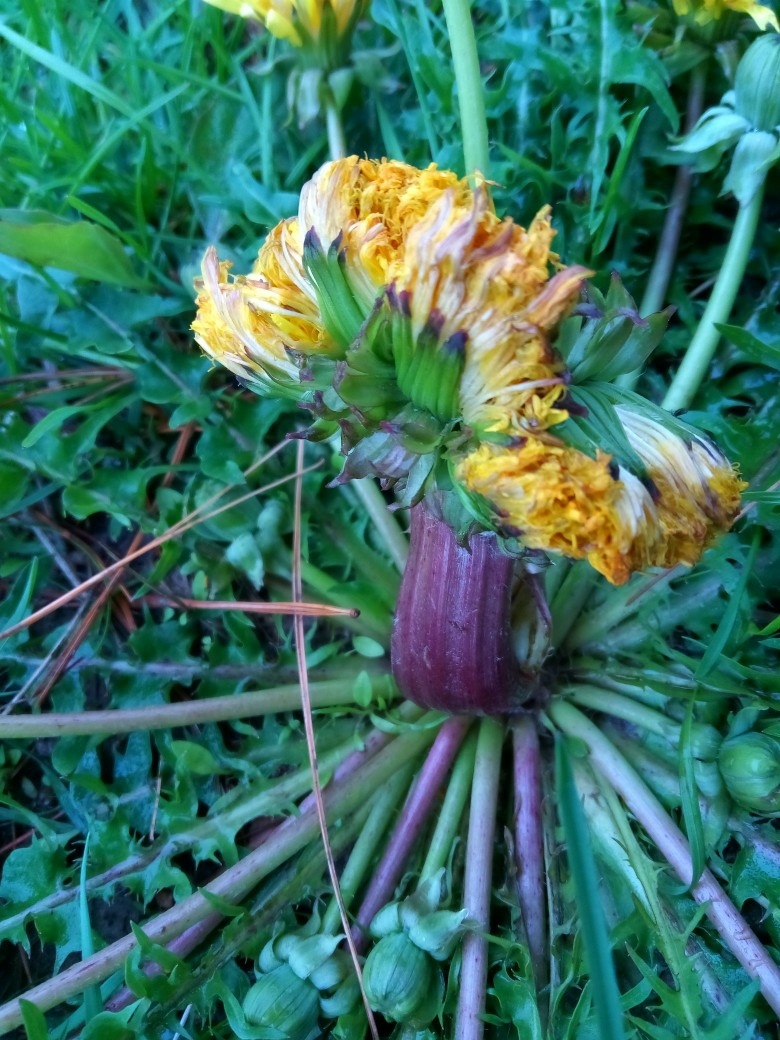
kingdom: Plantae
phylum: Tracheophyta
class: Magnoliopsida
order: Asterales
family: Asteraceae
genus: Taraxacum
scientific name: Taraxacum
